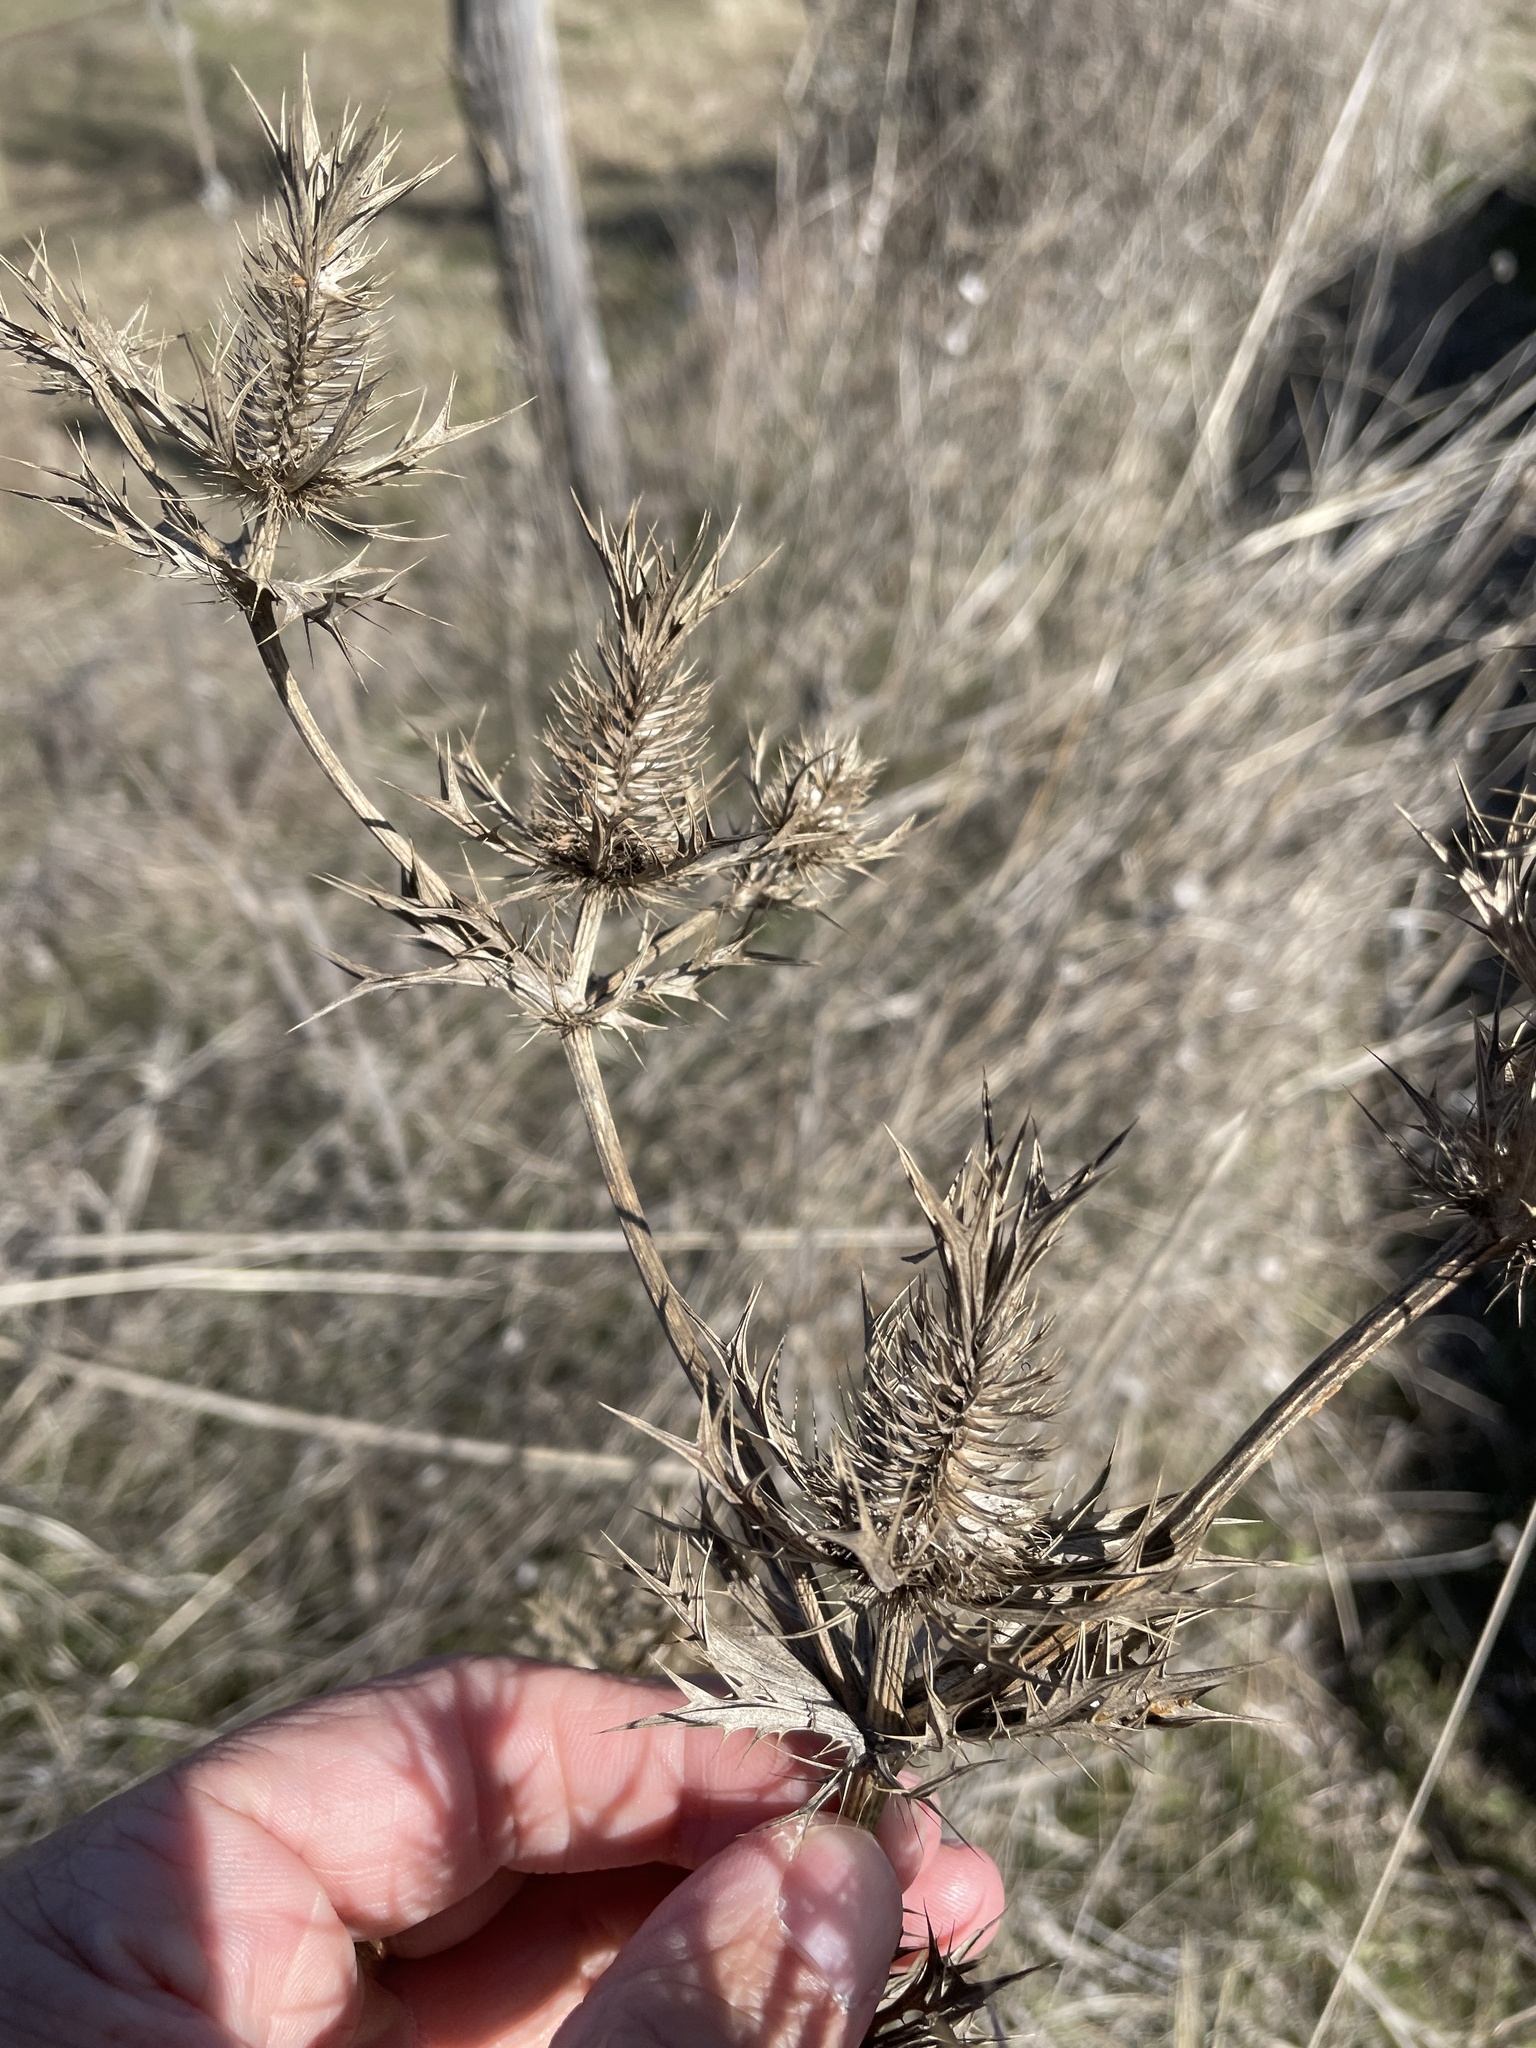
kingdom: Plantae
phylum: Tracheophyta
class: Magnoliopsida
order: Apiales
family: Apiaceae
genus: Eryngium
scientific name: Eryngium leavenworthii
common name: Leavenworth's eryngo
